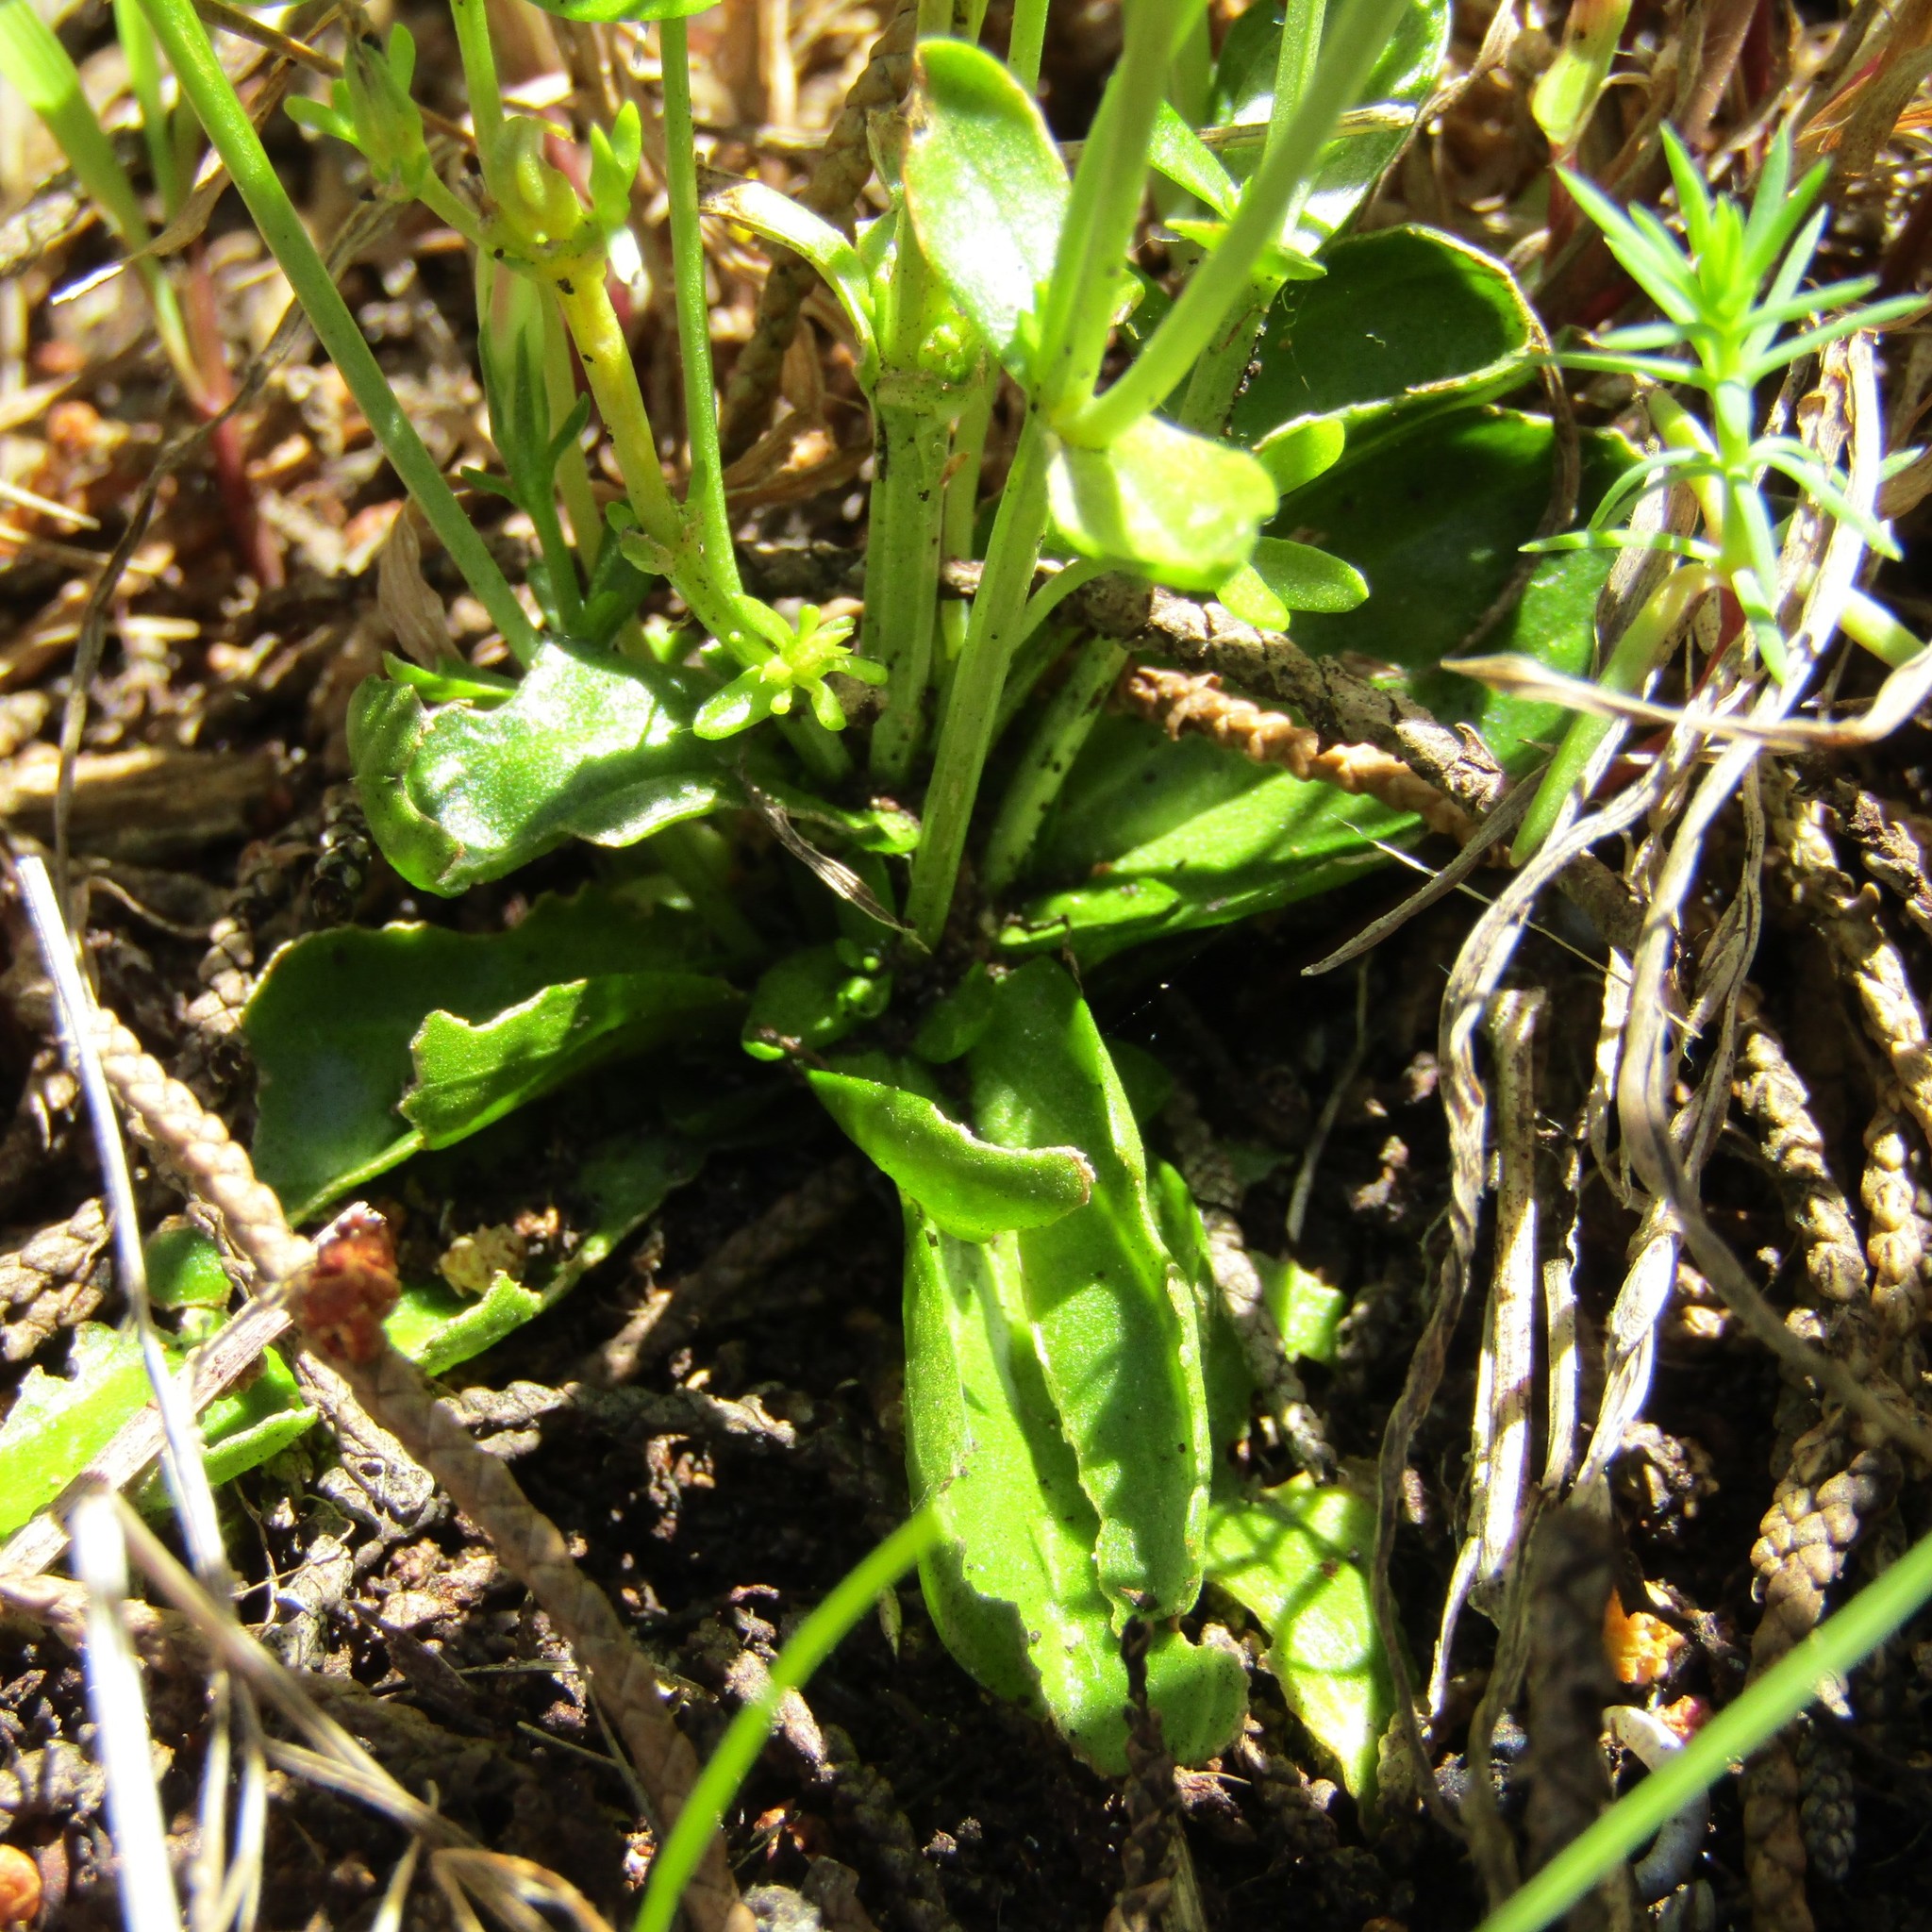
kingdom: Plantae
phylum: Tracheophyta
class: Magnoliopsida
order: Gentianales
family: Gentianaceae
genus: Centaurium
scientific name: Centaurium erythraea
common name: Common centaury
